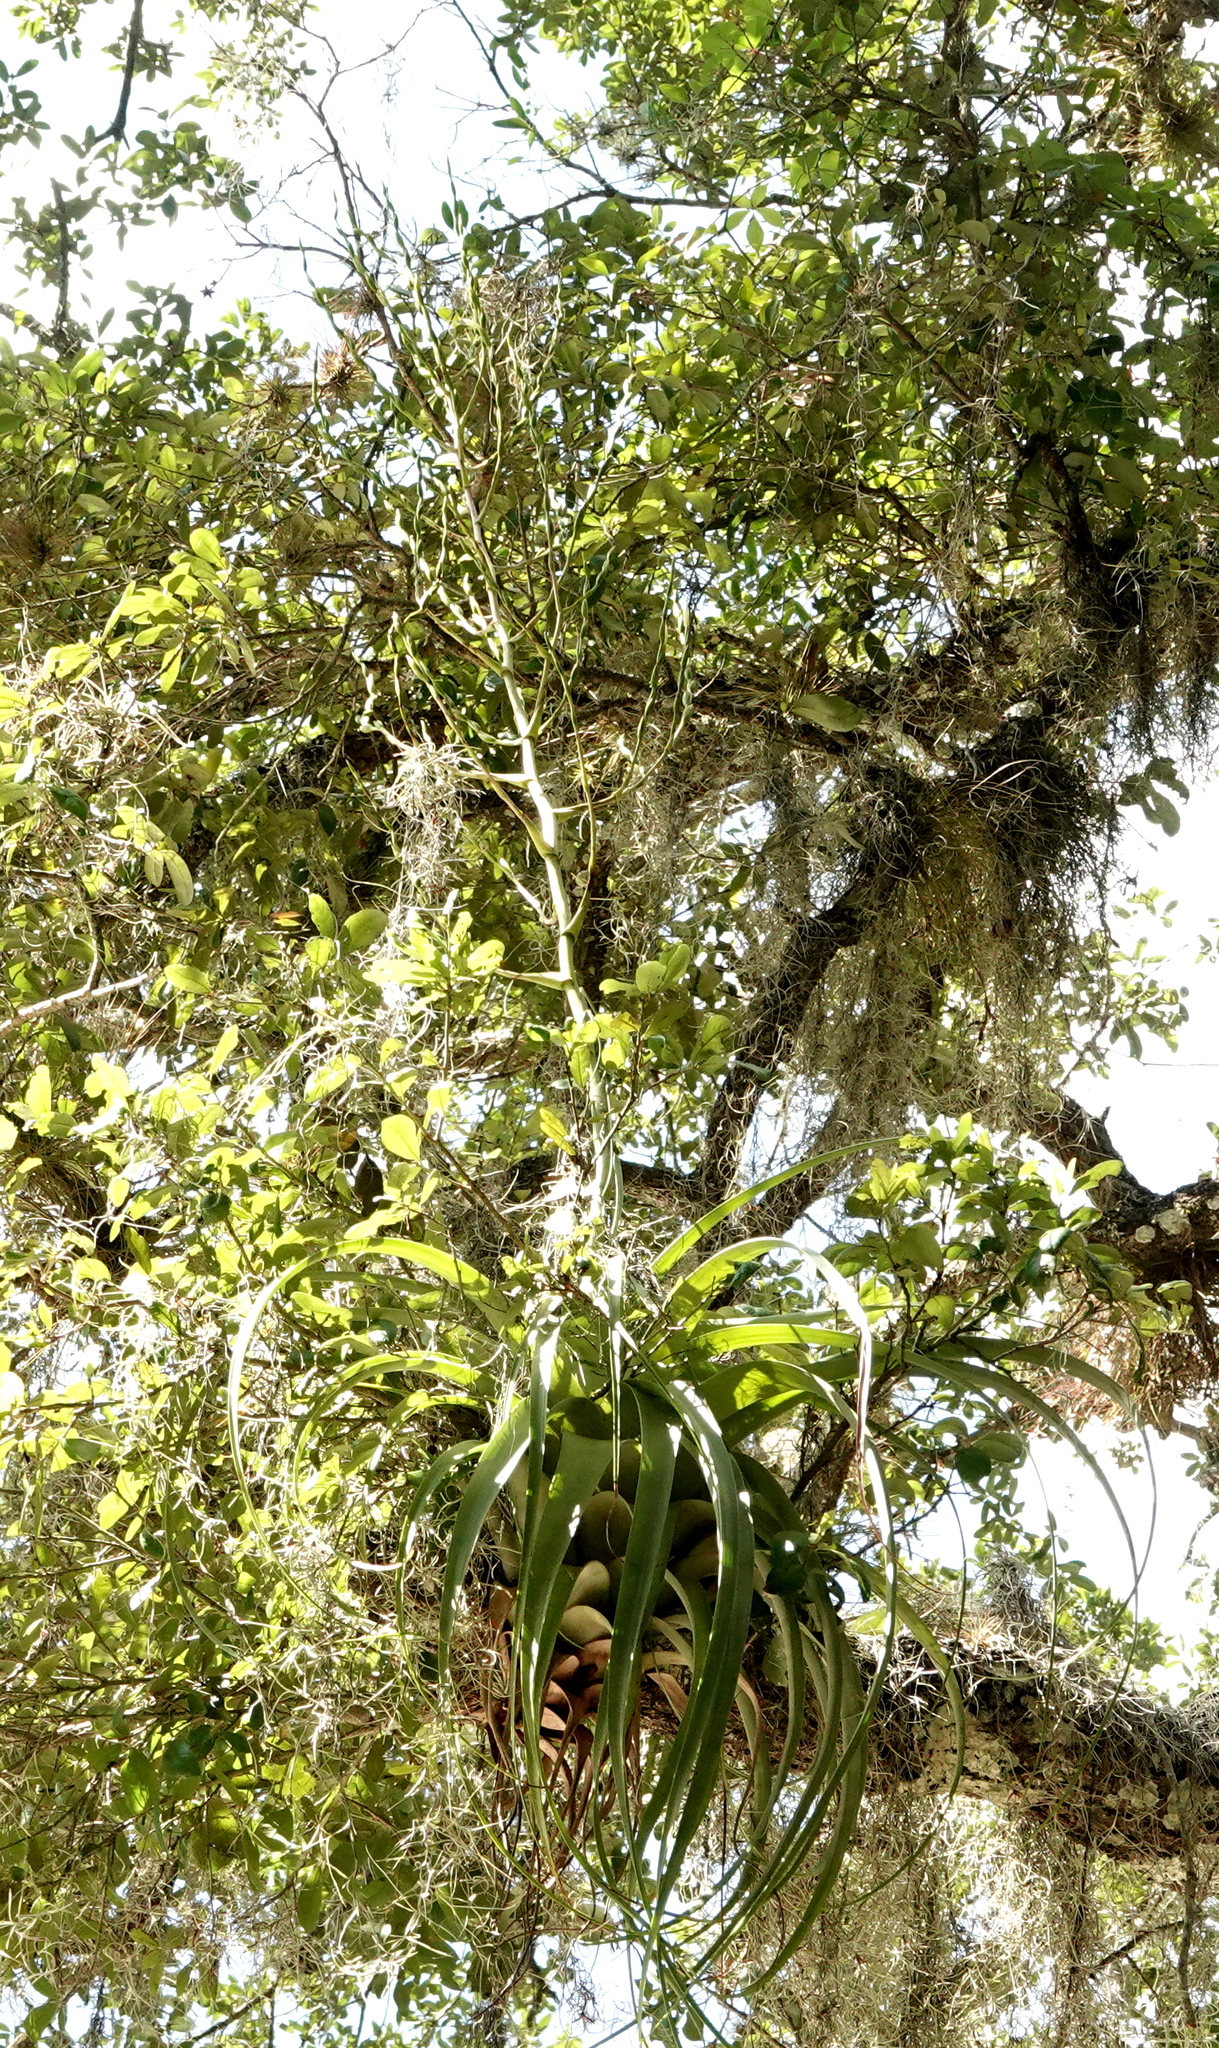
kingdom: Plantae
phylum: Tracheophyta
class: Liliopsida
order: Poales
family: Bromeliaceae
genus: Tillandsia
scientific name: Tillandsia utriculata
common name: Wild pine
